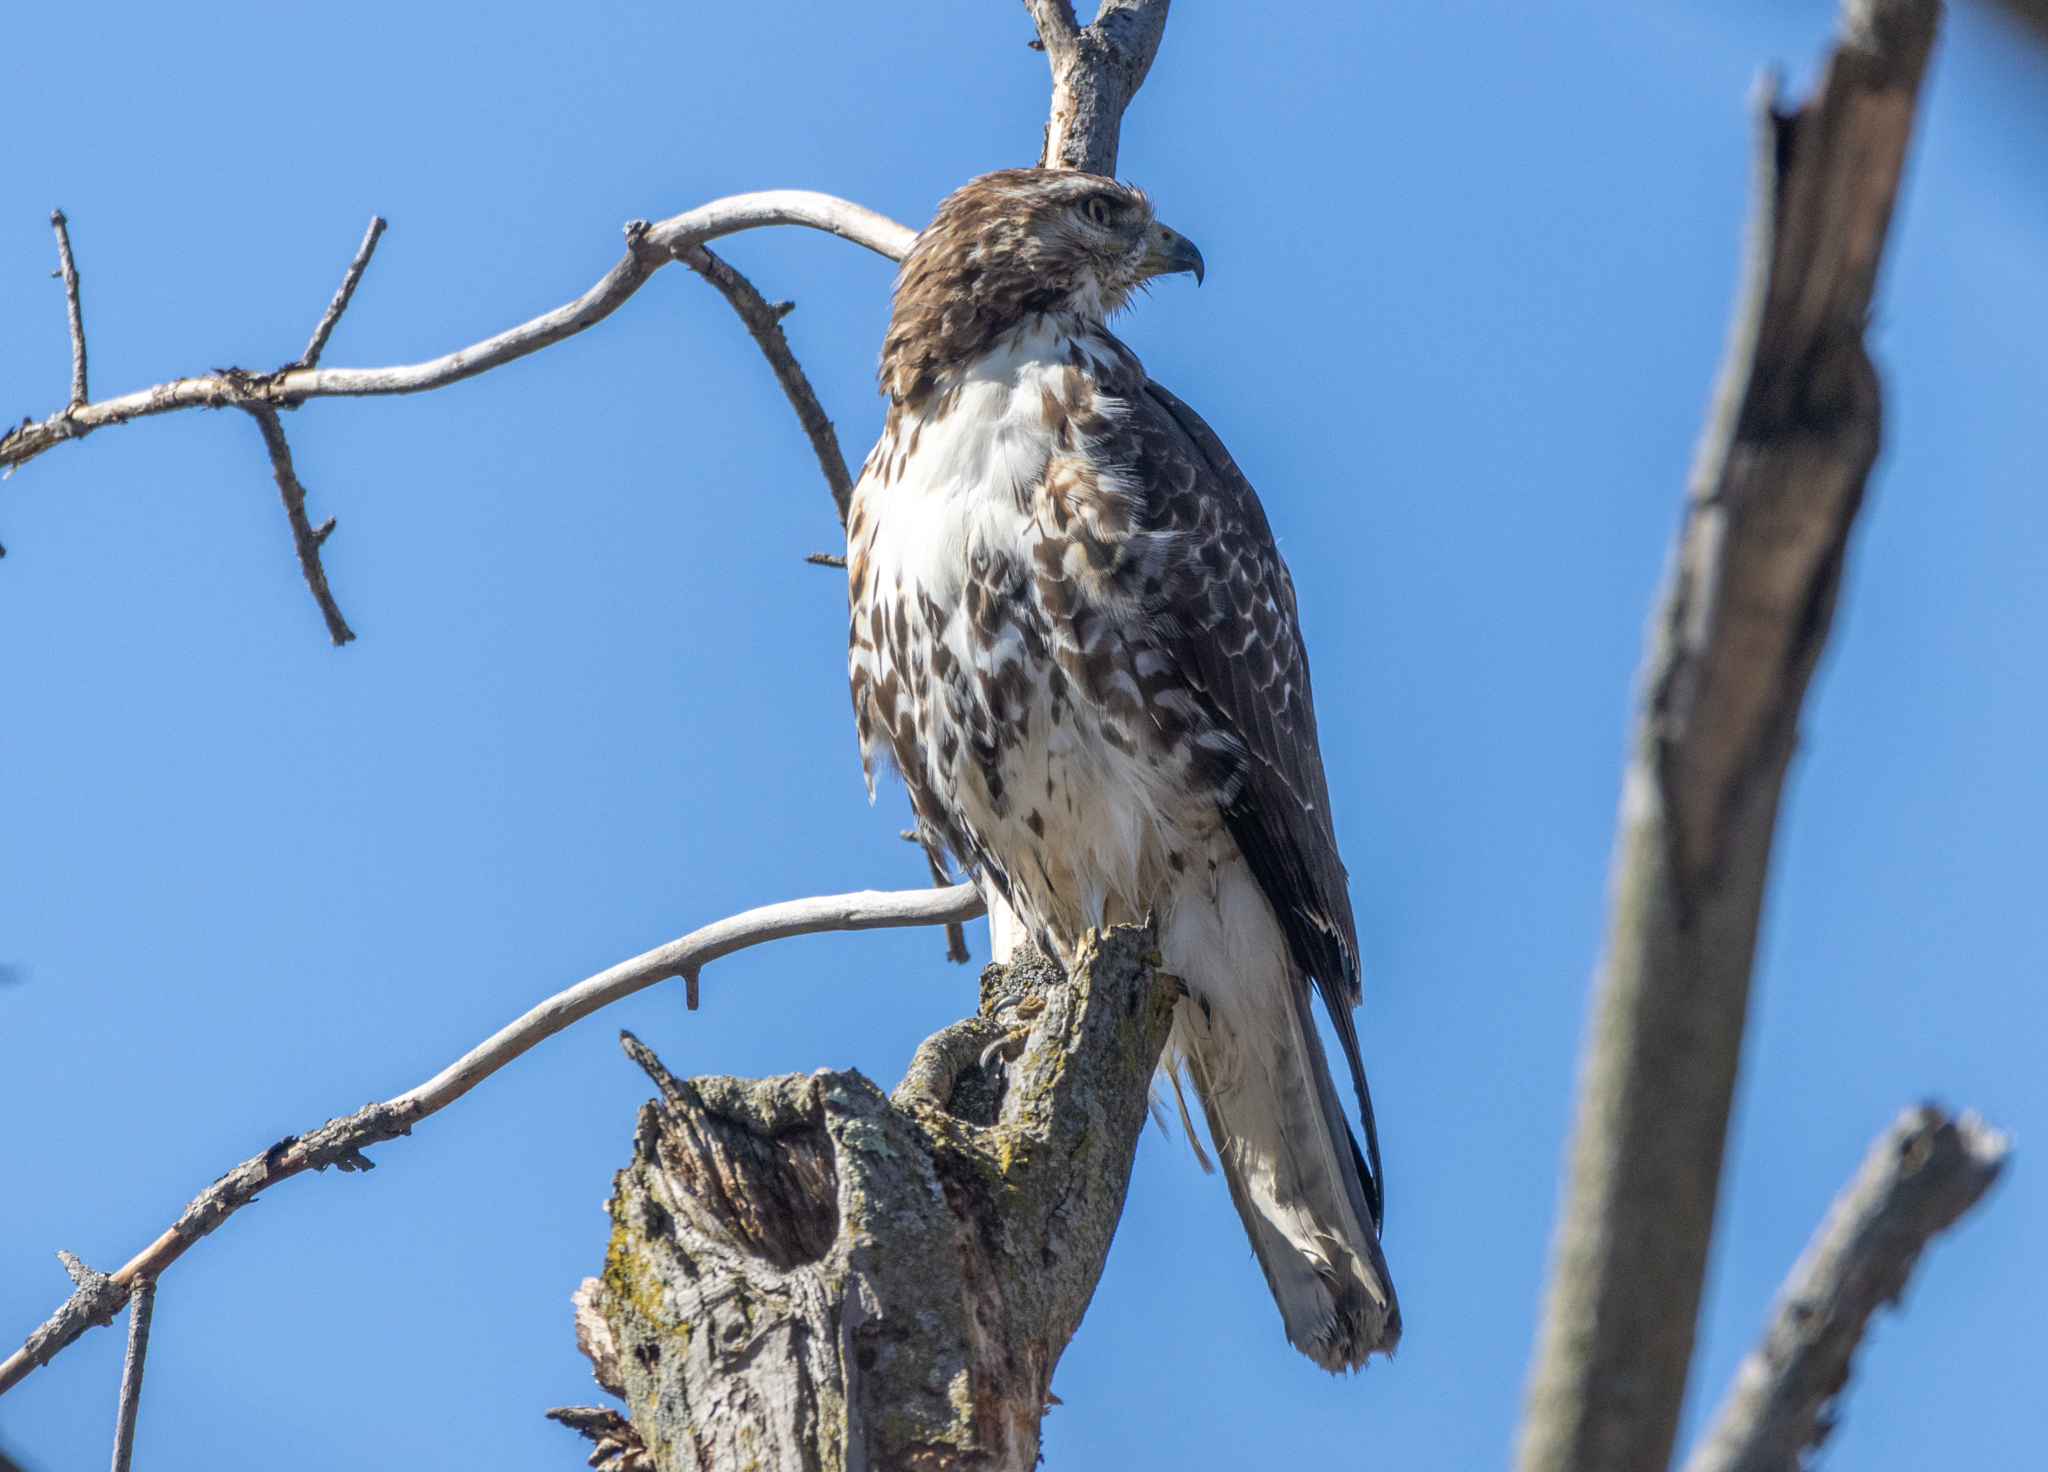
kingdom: Animalia
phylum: Chordata
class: Aves
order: Accipitriformes
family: Accipitridae
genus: Buteo
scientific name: Buteo jamaicensis
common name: Red-tailed hawk
